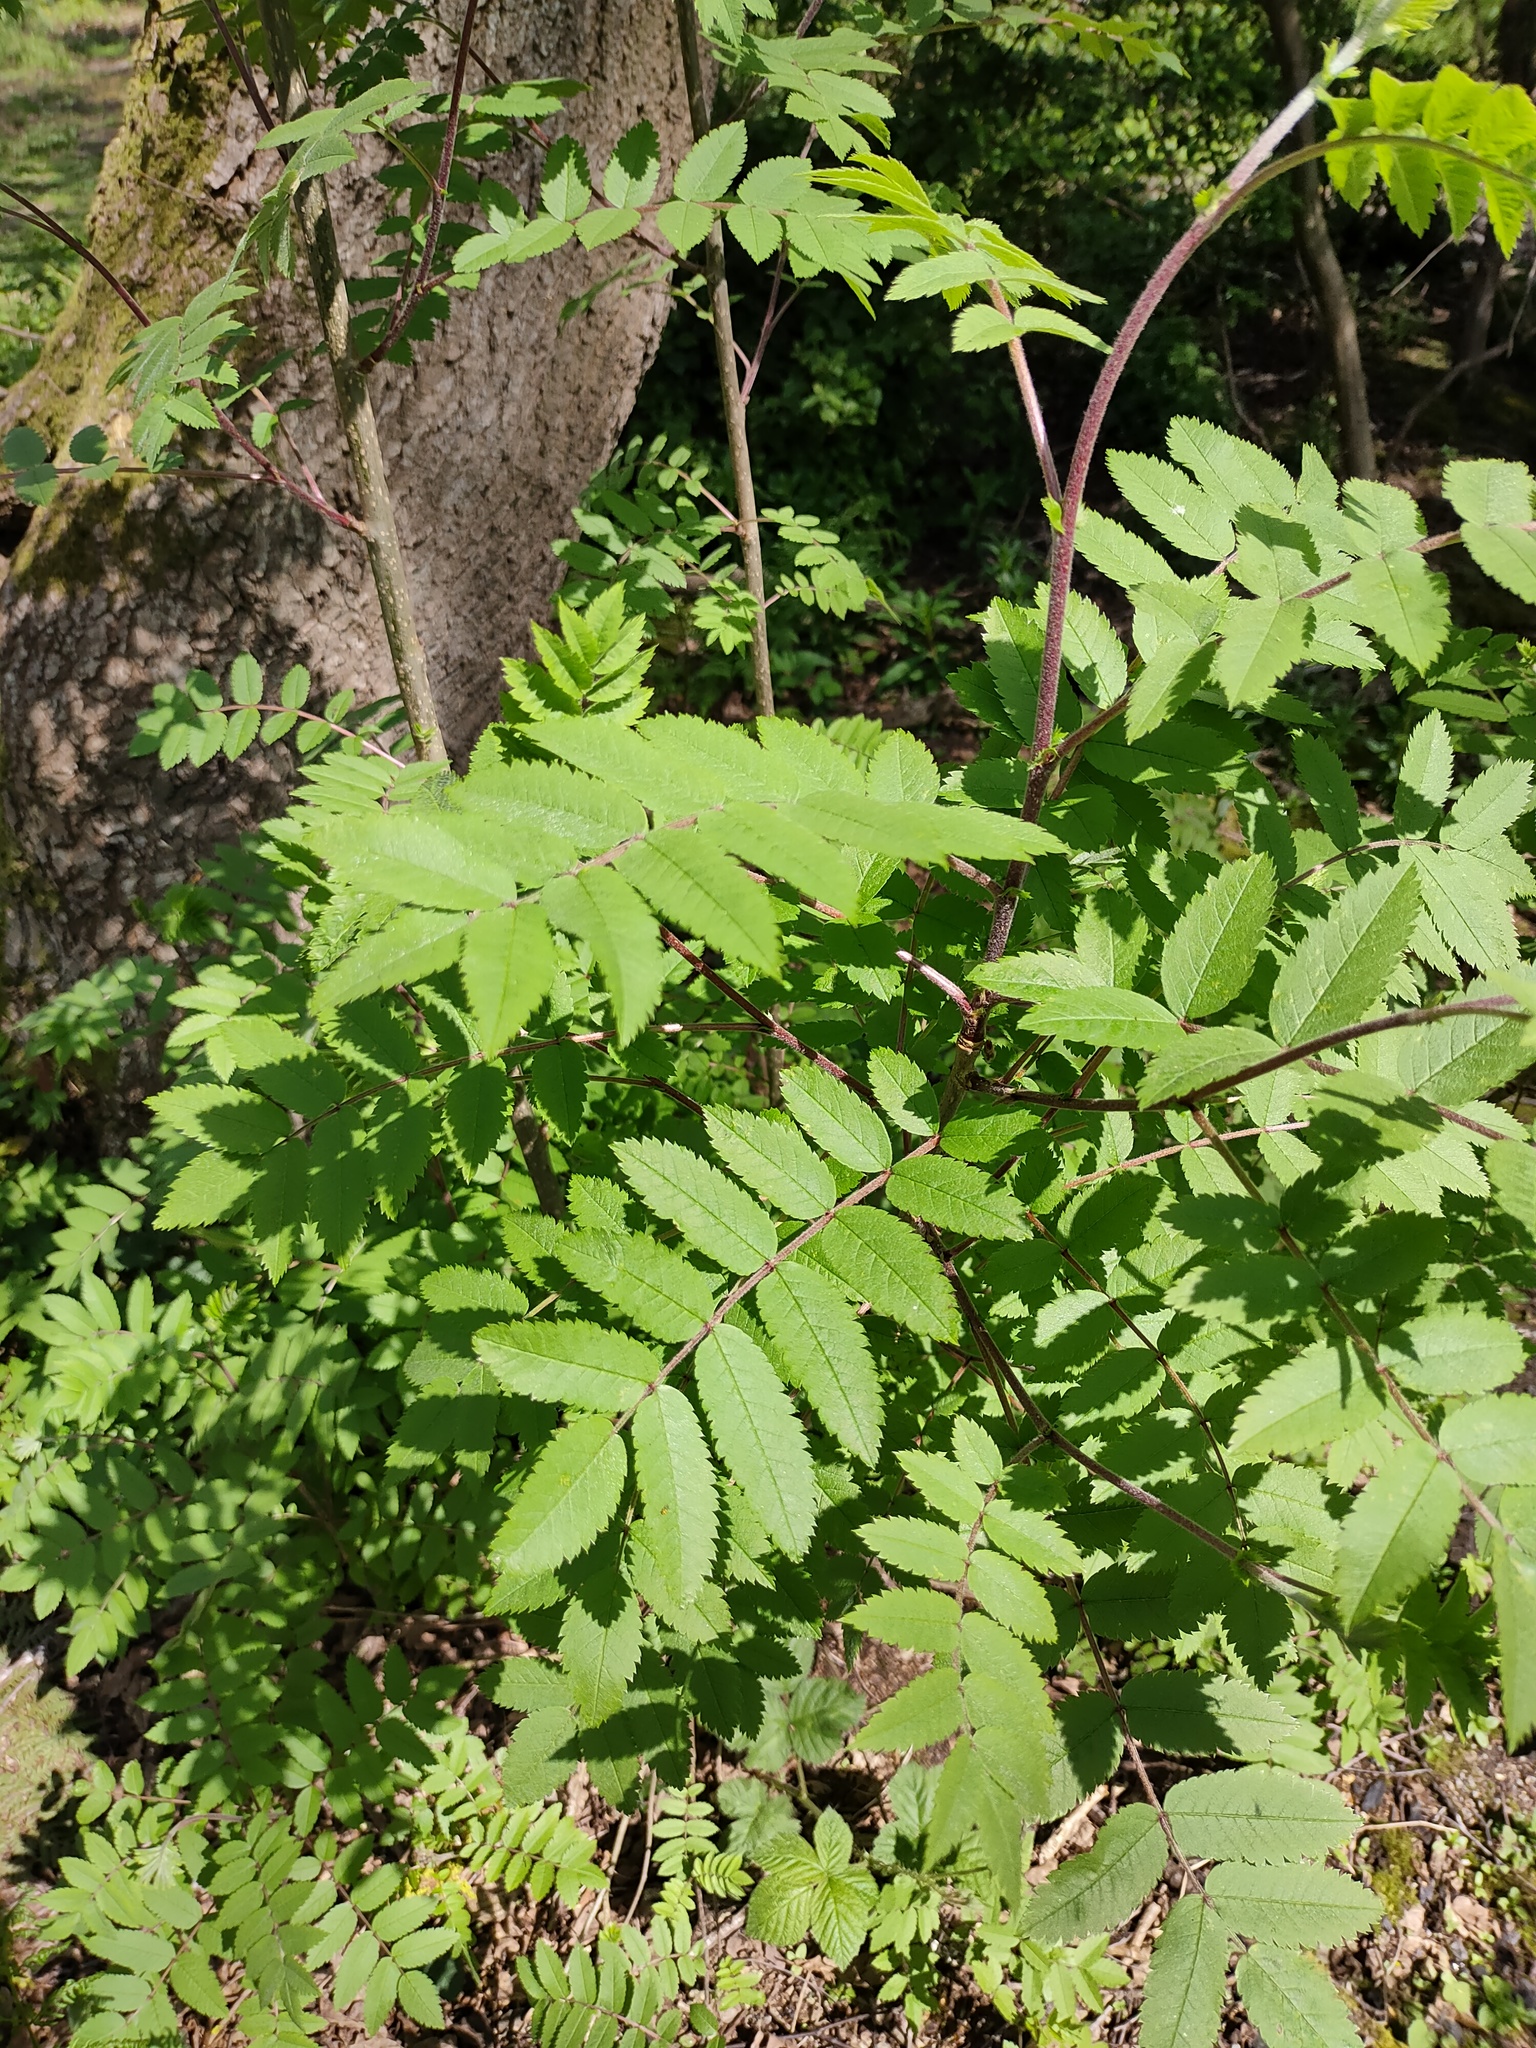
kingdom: Plantae
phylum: Tracheophyta
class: Magnoliopsida
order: Rosales
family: Rosaceae
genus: Sorbus
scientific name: Sorbus aucuparia
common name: Rowan
